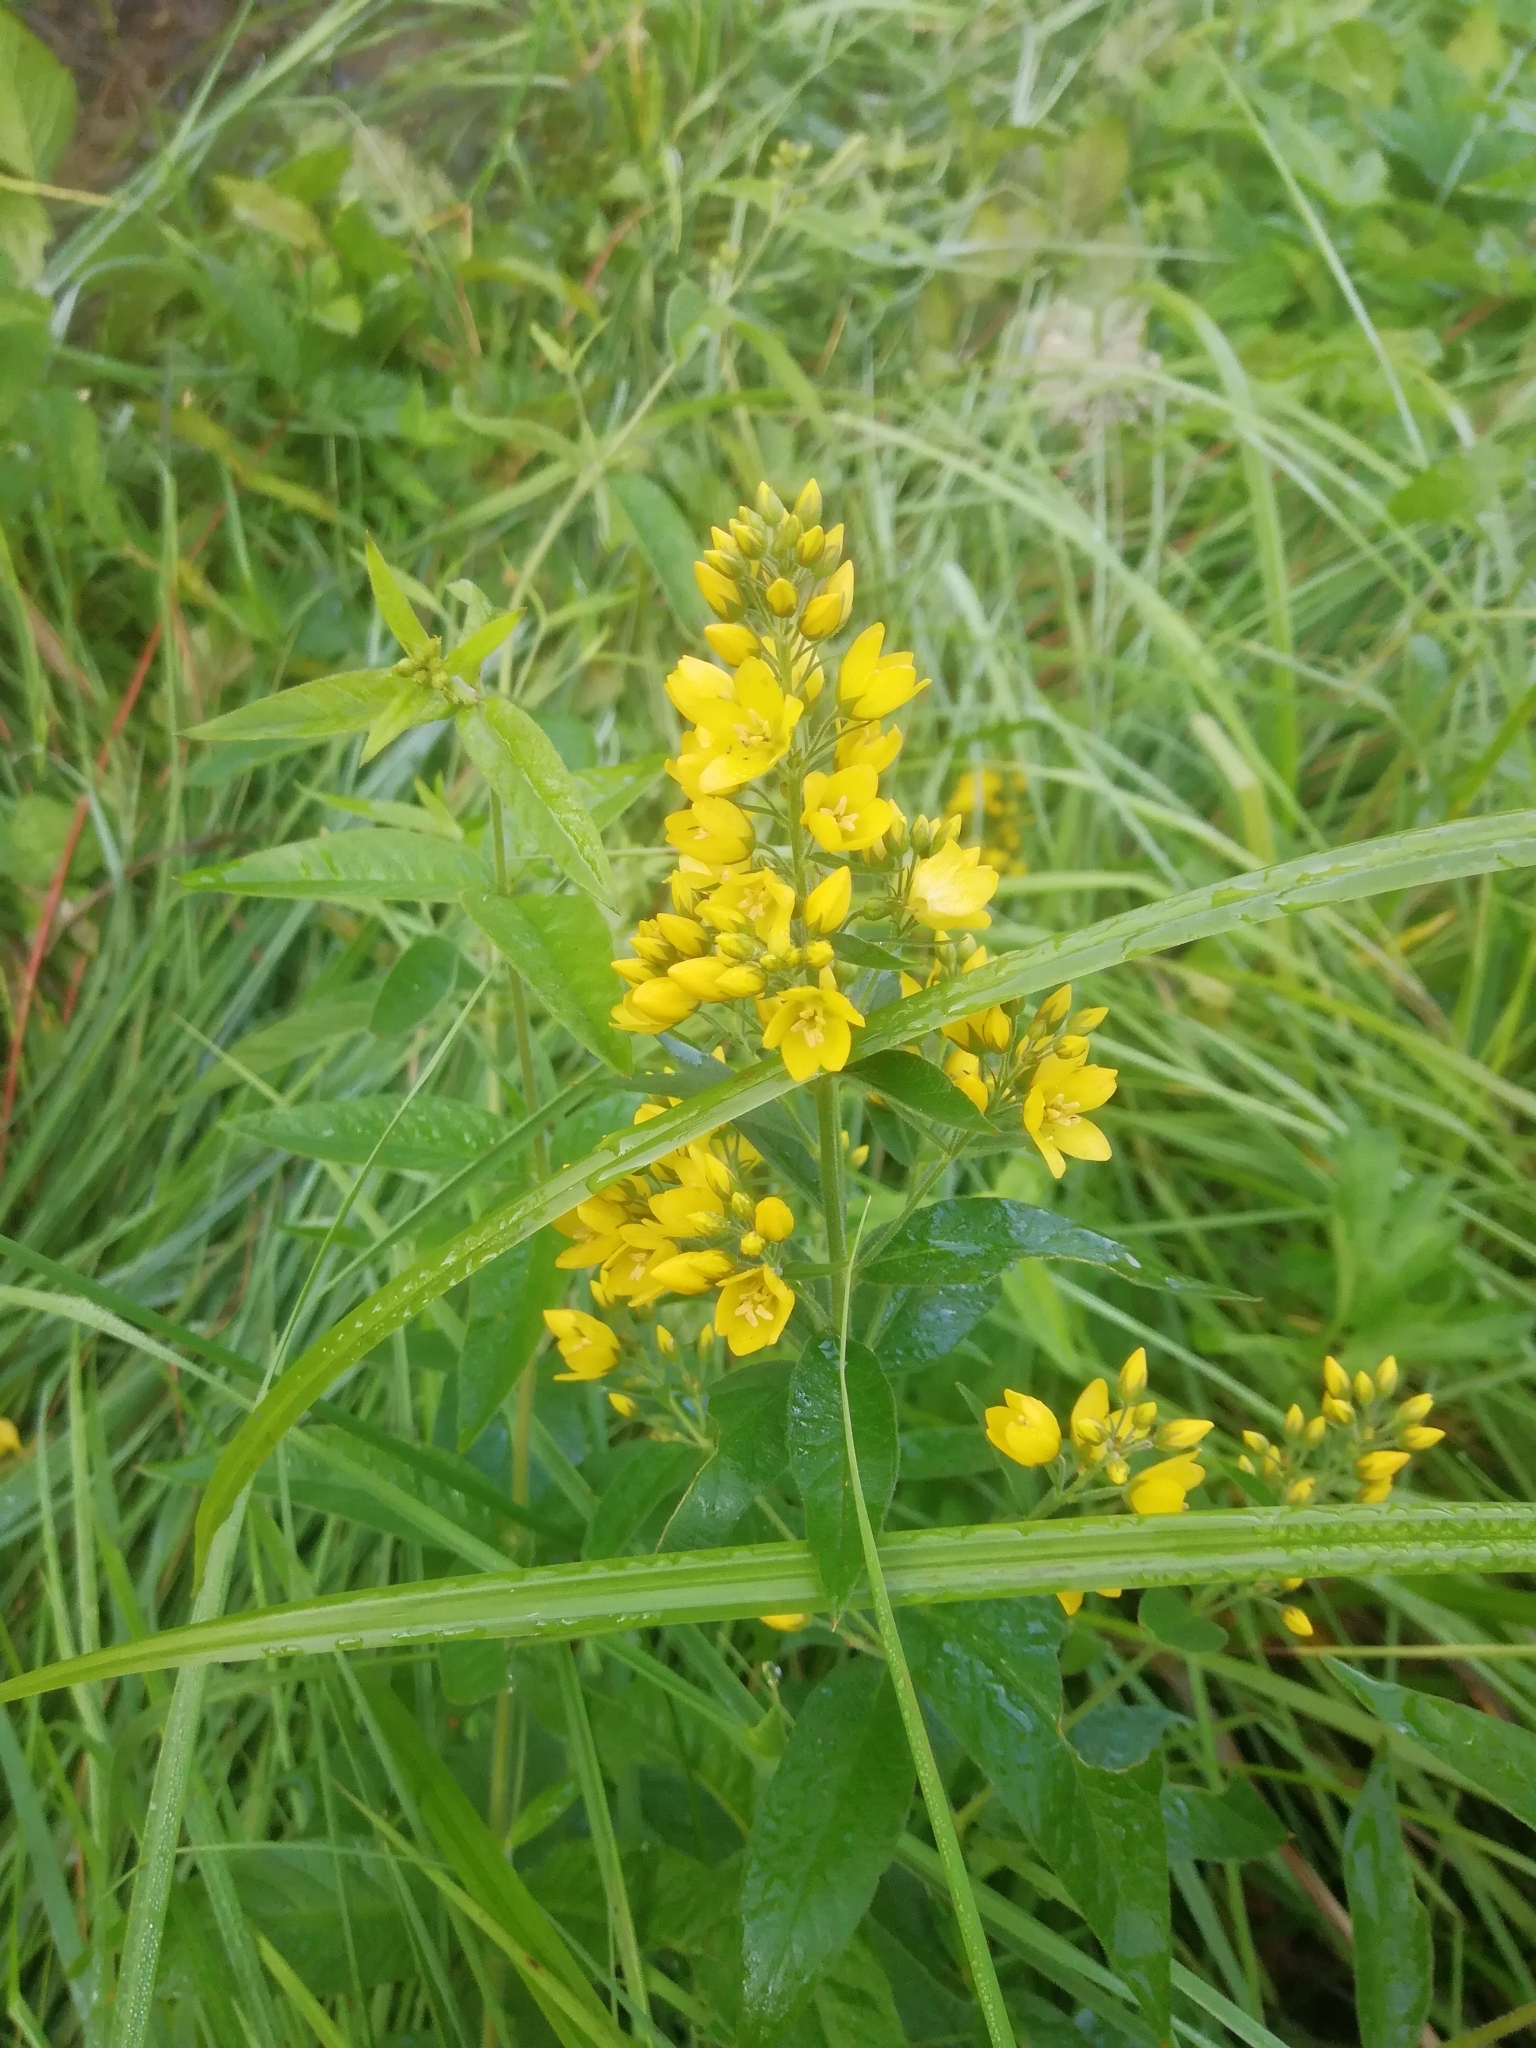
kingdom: Plantae
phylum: Tracheophyta
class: Magnoliopsida
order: Ericales
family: Primulaceae
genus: Lysimachia
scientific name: Lysimachia vulgaris
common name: Yellow loosestrife
